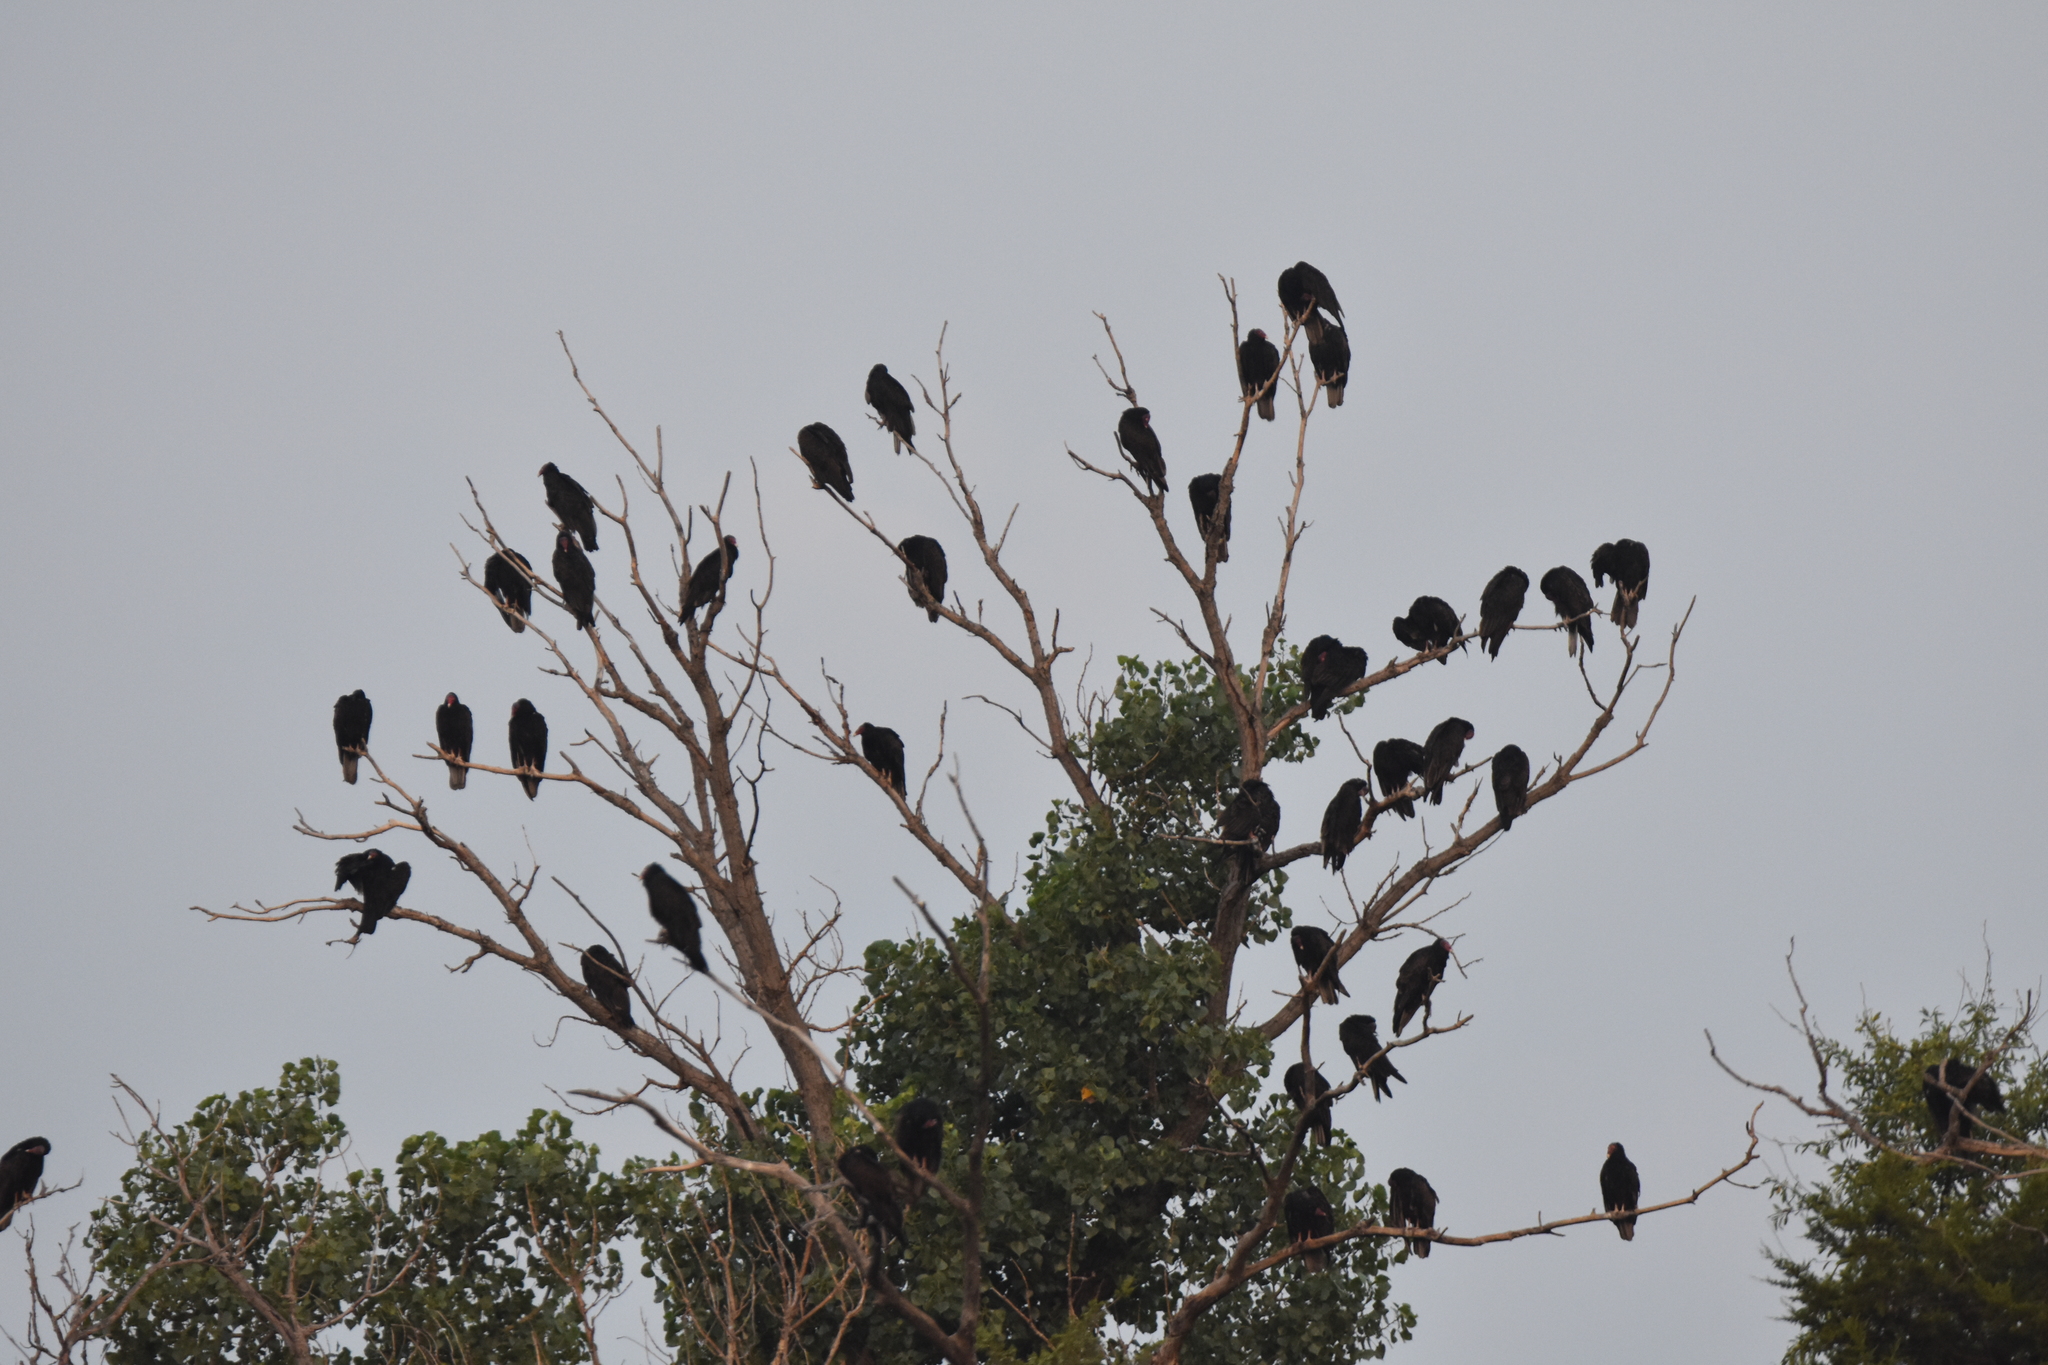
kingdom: Animalia
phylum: Chordata
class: Aves
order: Accipitriformes
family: Cathartidae
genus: Cathartes
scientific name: Cathartes aura
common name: Turkey vulture
